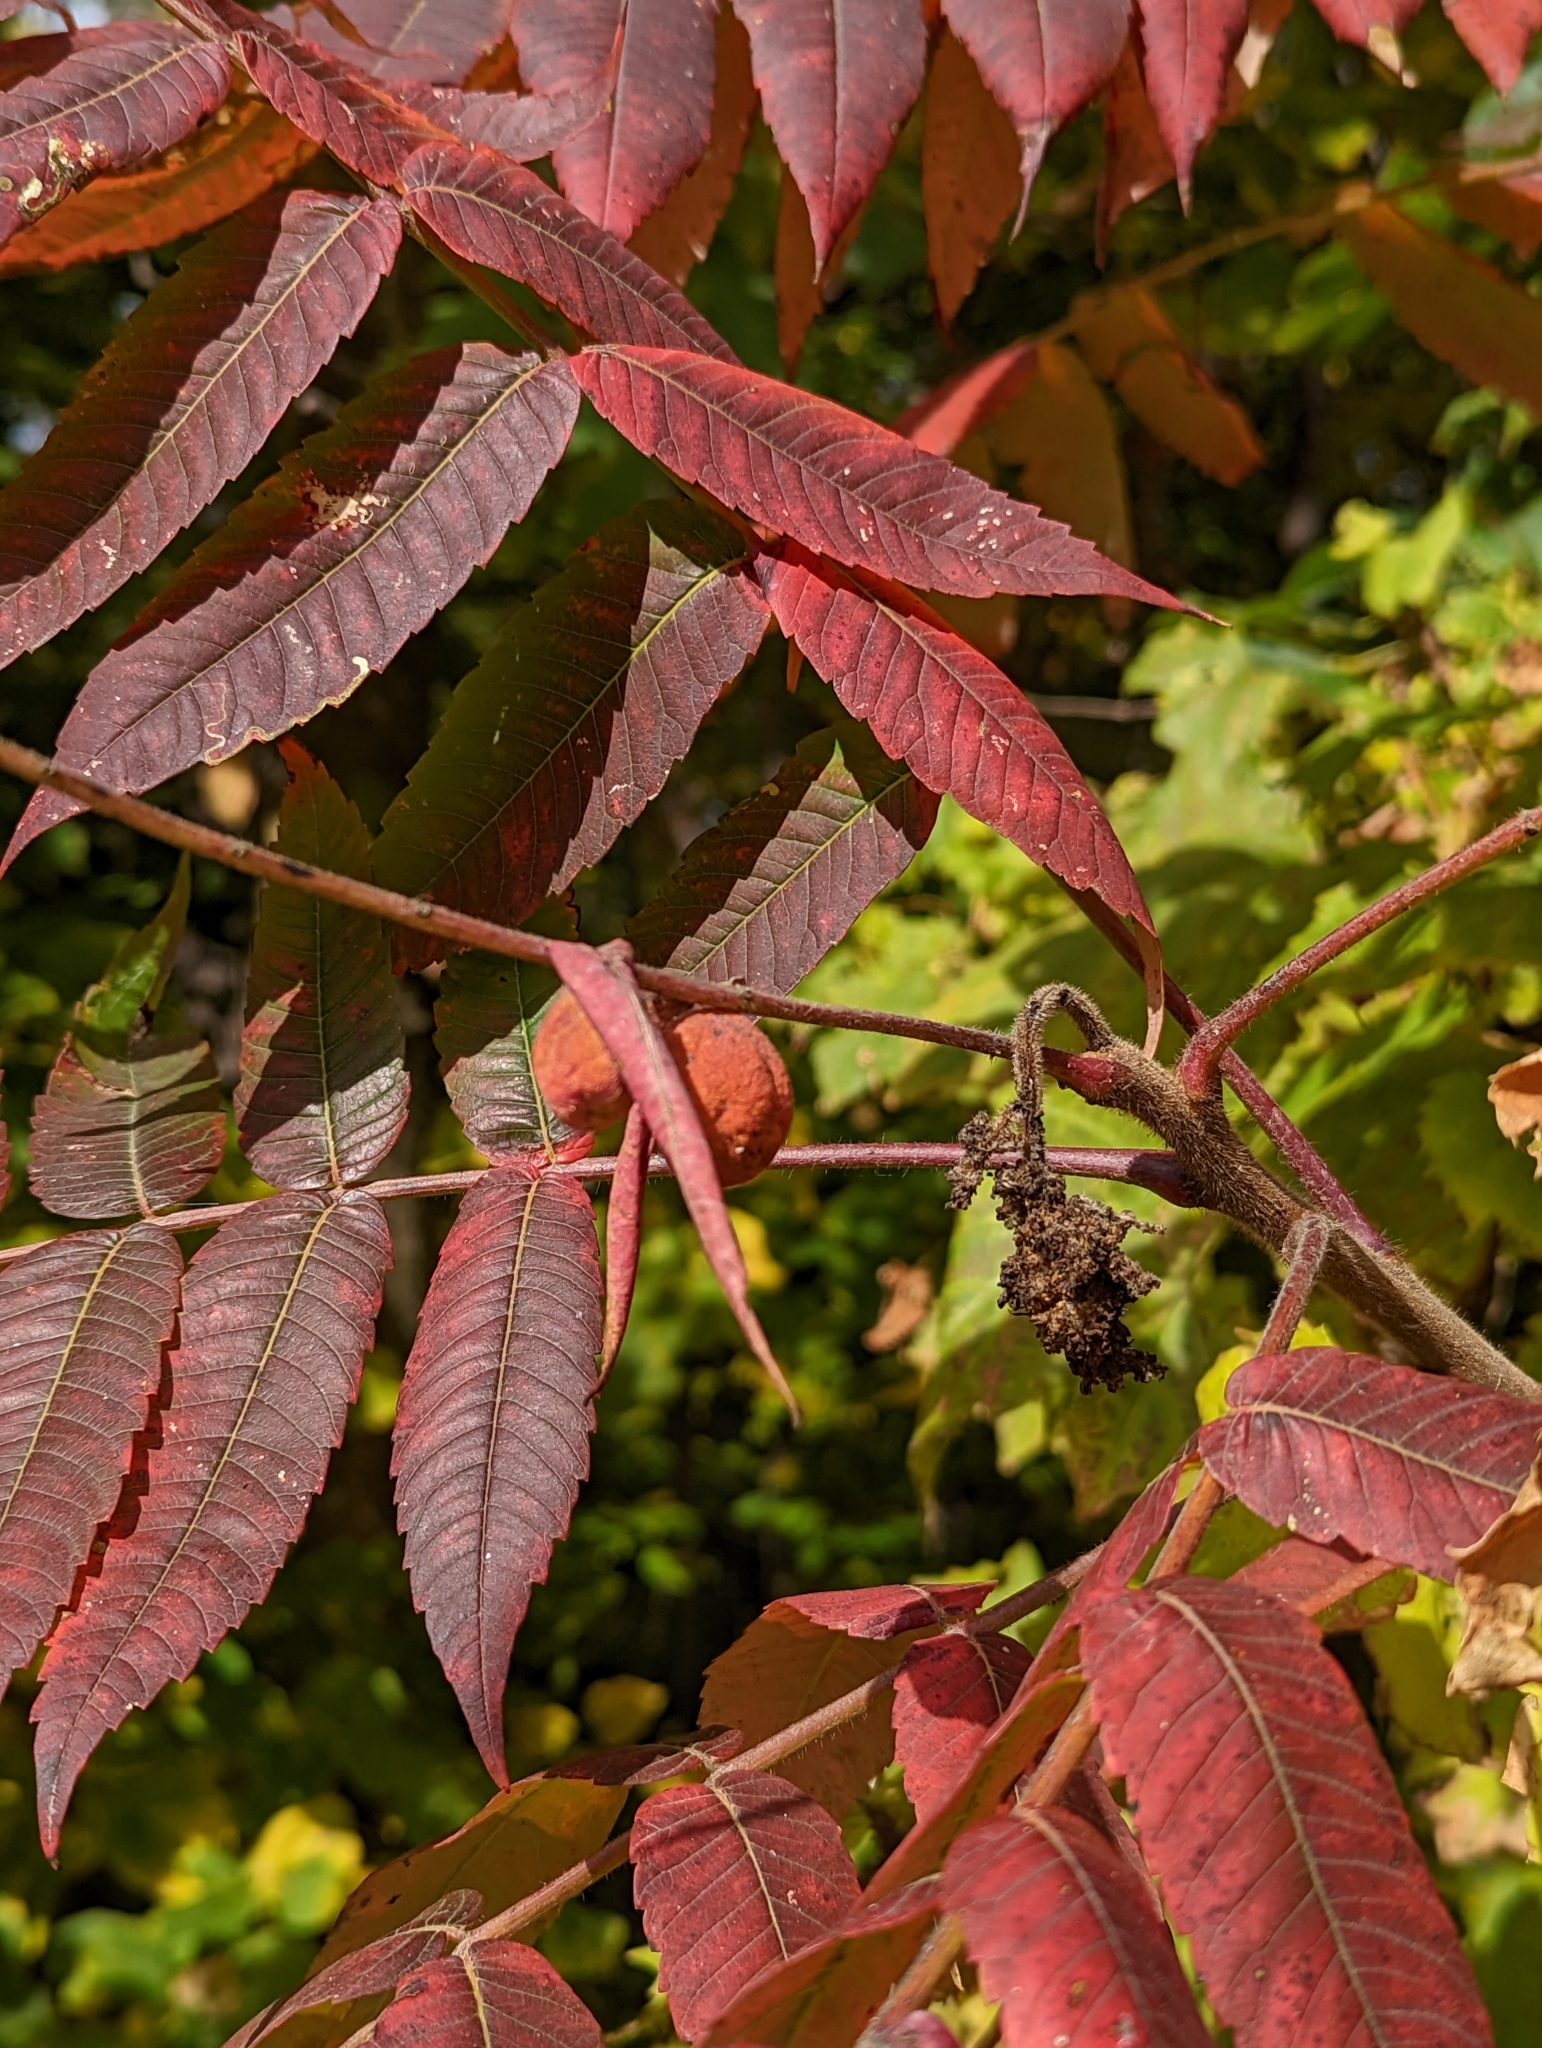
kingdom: Animalia
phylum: Arthropoda
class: Insecta
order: Hemiptera
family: Aphididae
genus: Melaphis
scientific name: Melaphis rhois
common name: Sumac gall aphid
